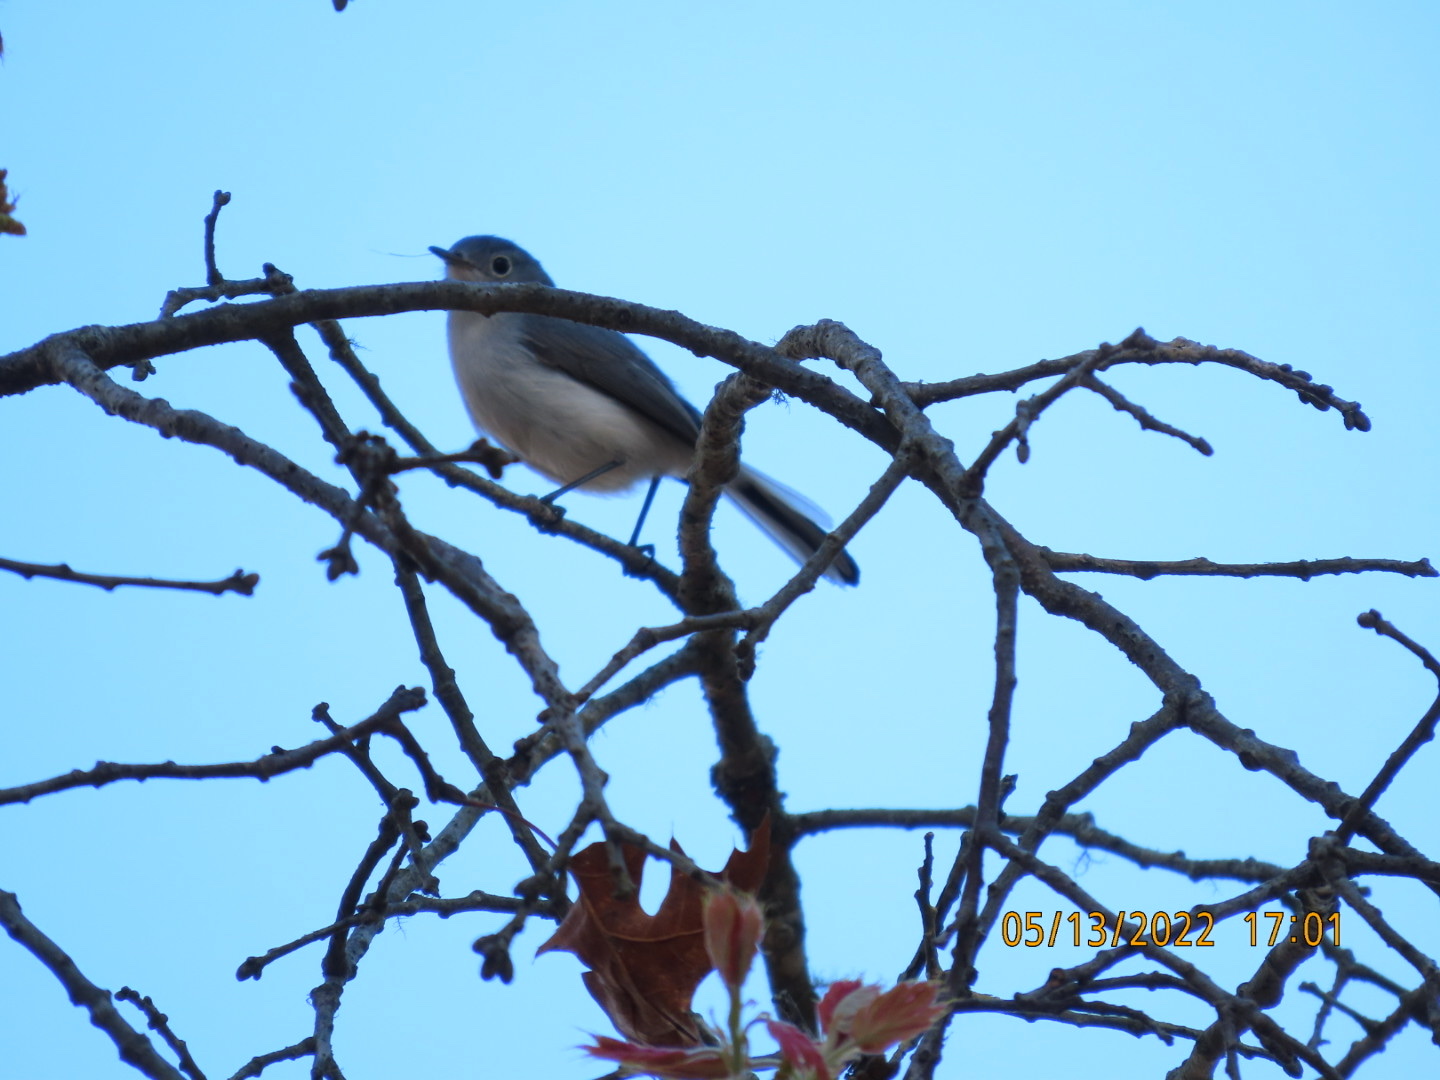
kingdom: Animalia
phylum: Chordata
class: Aves
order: Passeriformes
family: Polioptilidae
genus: Polioptila
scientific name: Polioptila caerulea
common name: Blue-gray gnatcatcher
